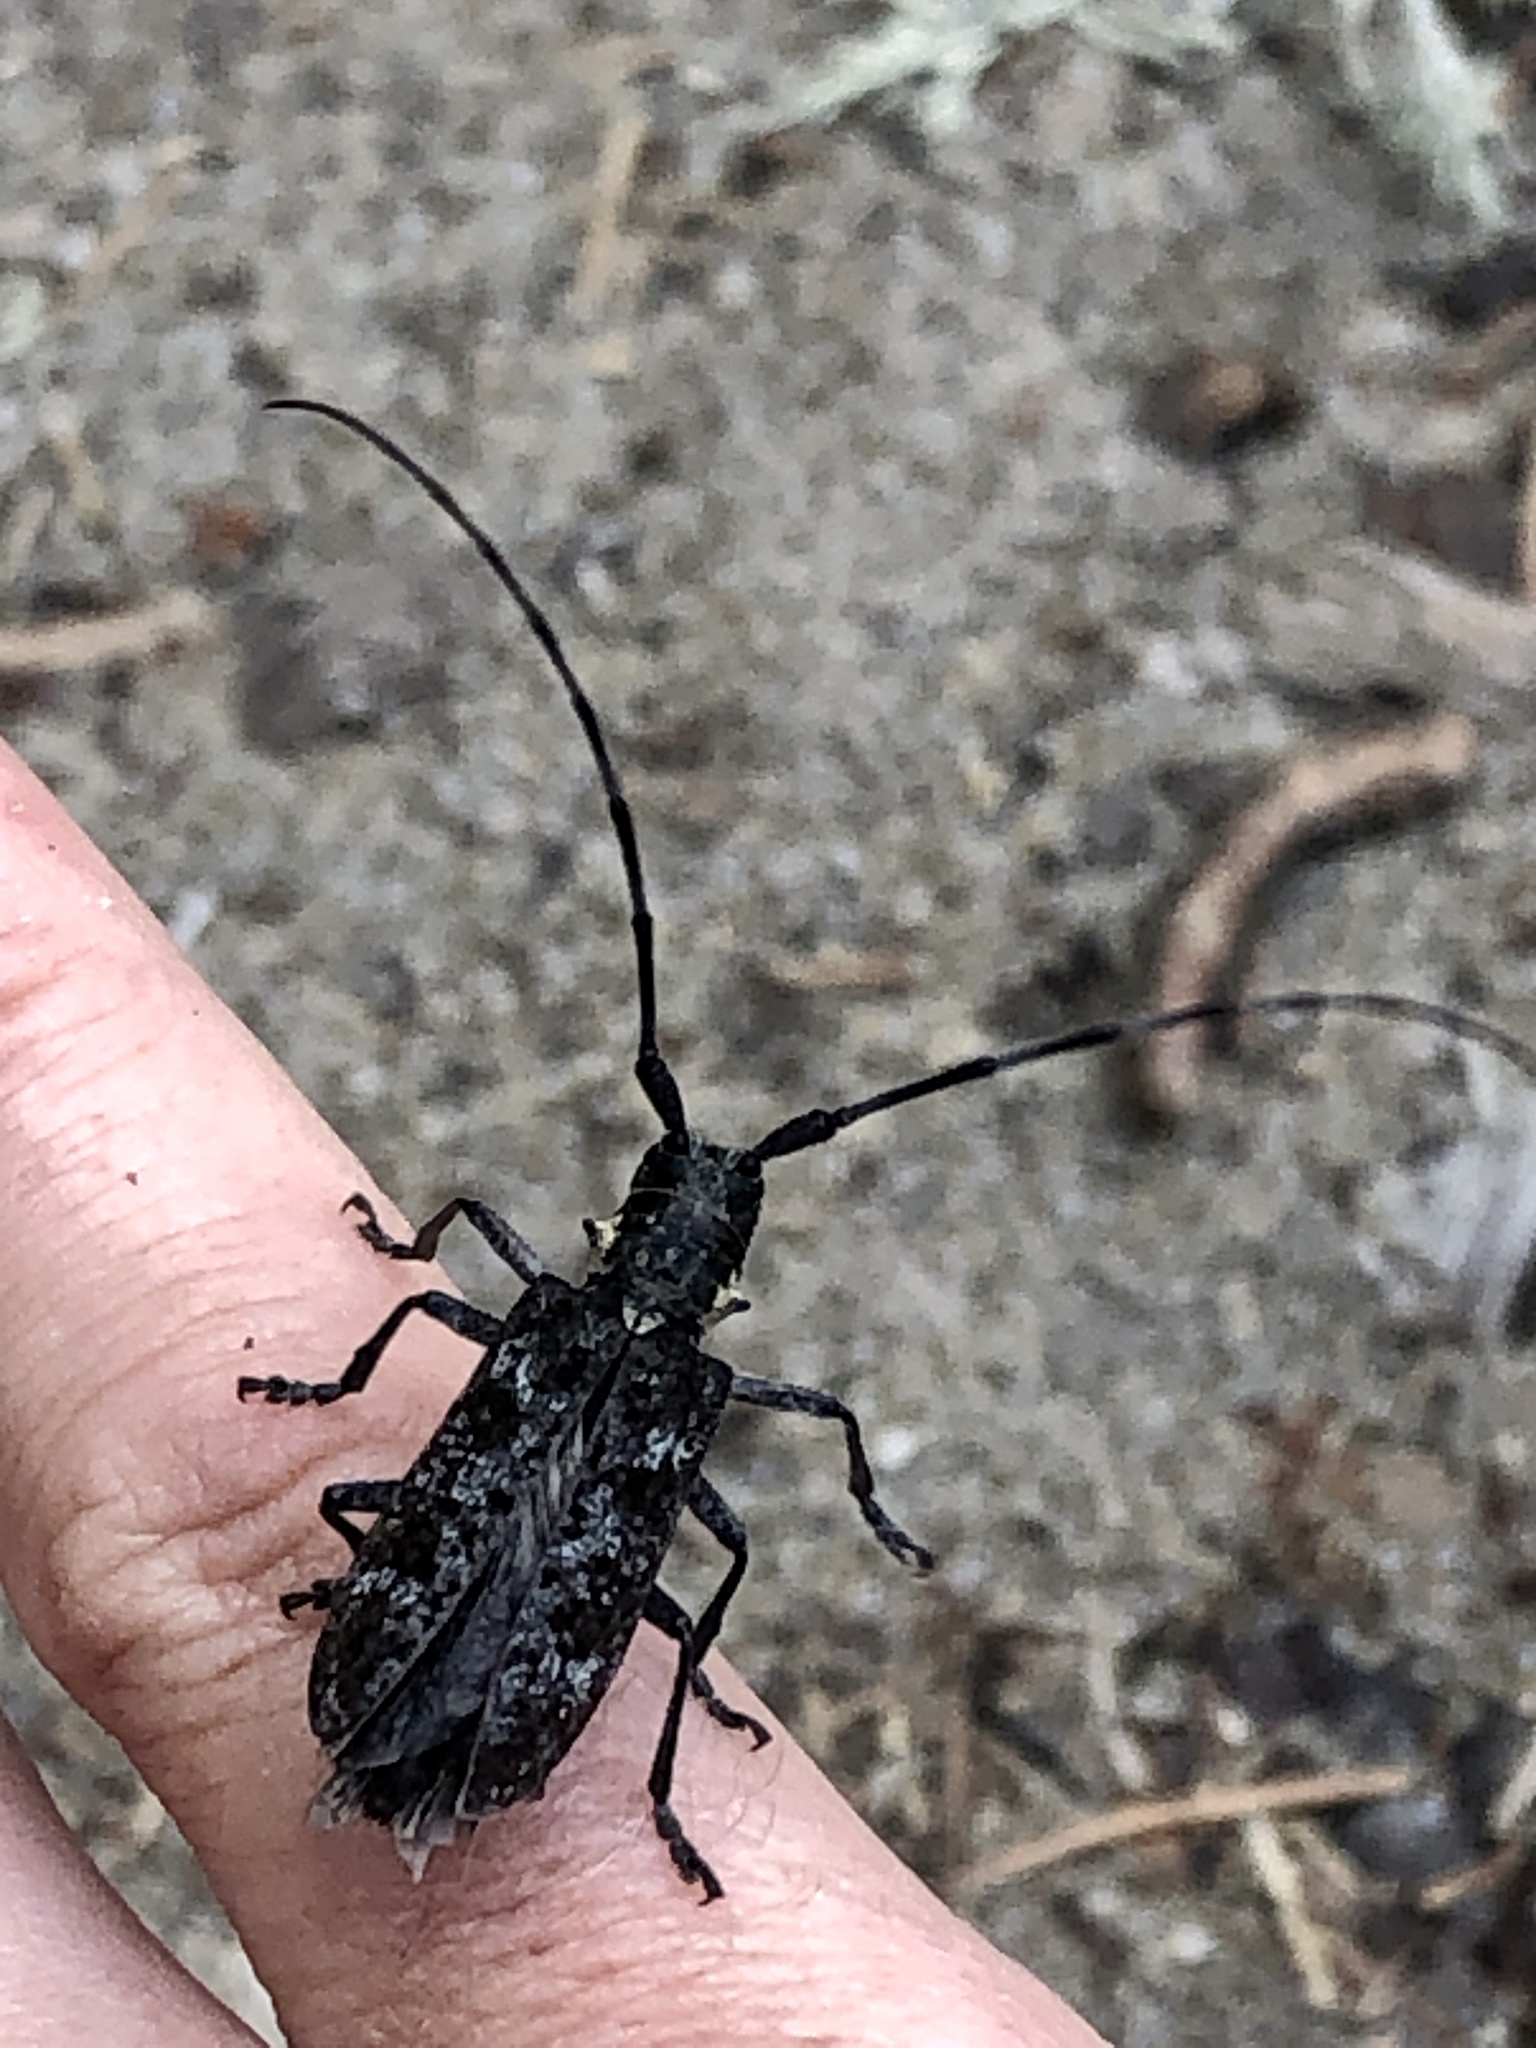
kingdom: Animalia
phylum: Arthropoda
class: Insecta
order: Coleoptera
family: Cerambycidae
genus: Monochamus
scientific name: Monochamus
